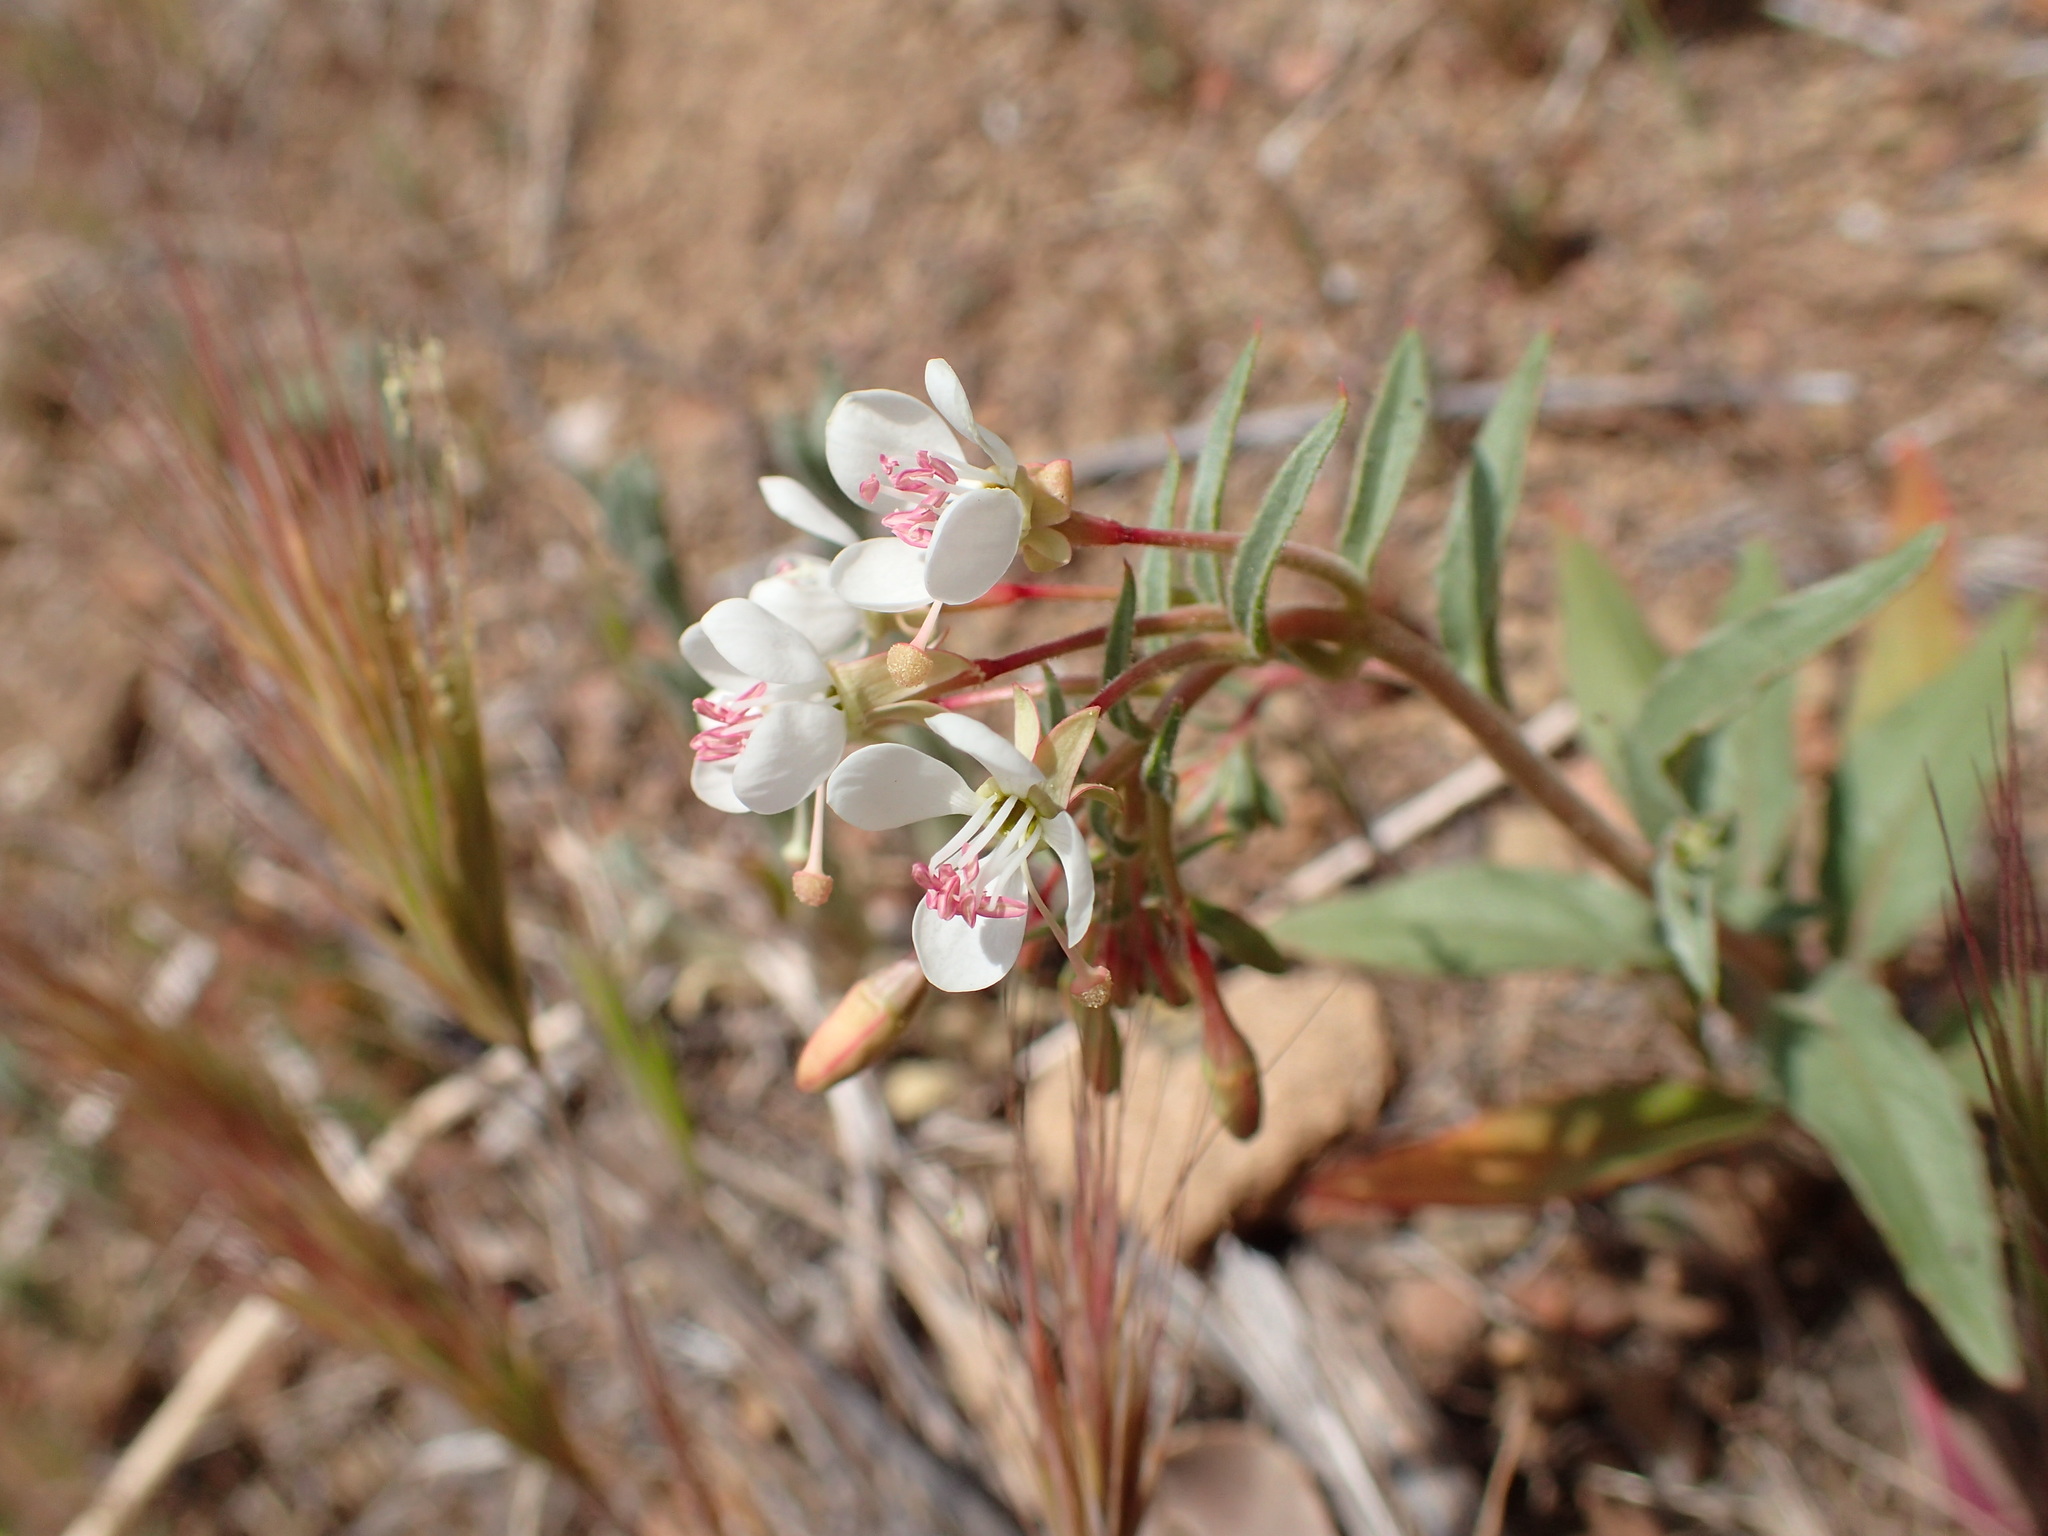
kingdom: Plantae
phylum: Tracheophyta
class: Magnoliopsida
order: Myrtales
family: Onagraceae
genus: Eremothera
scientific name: Eremothera boothii
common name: Booth's evening primrose
